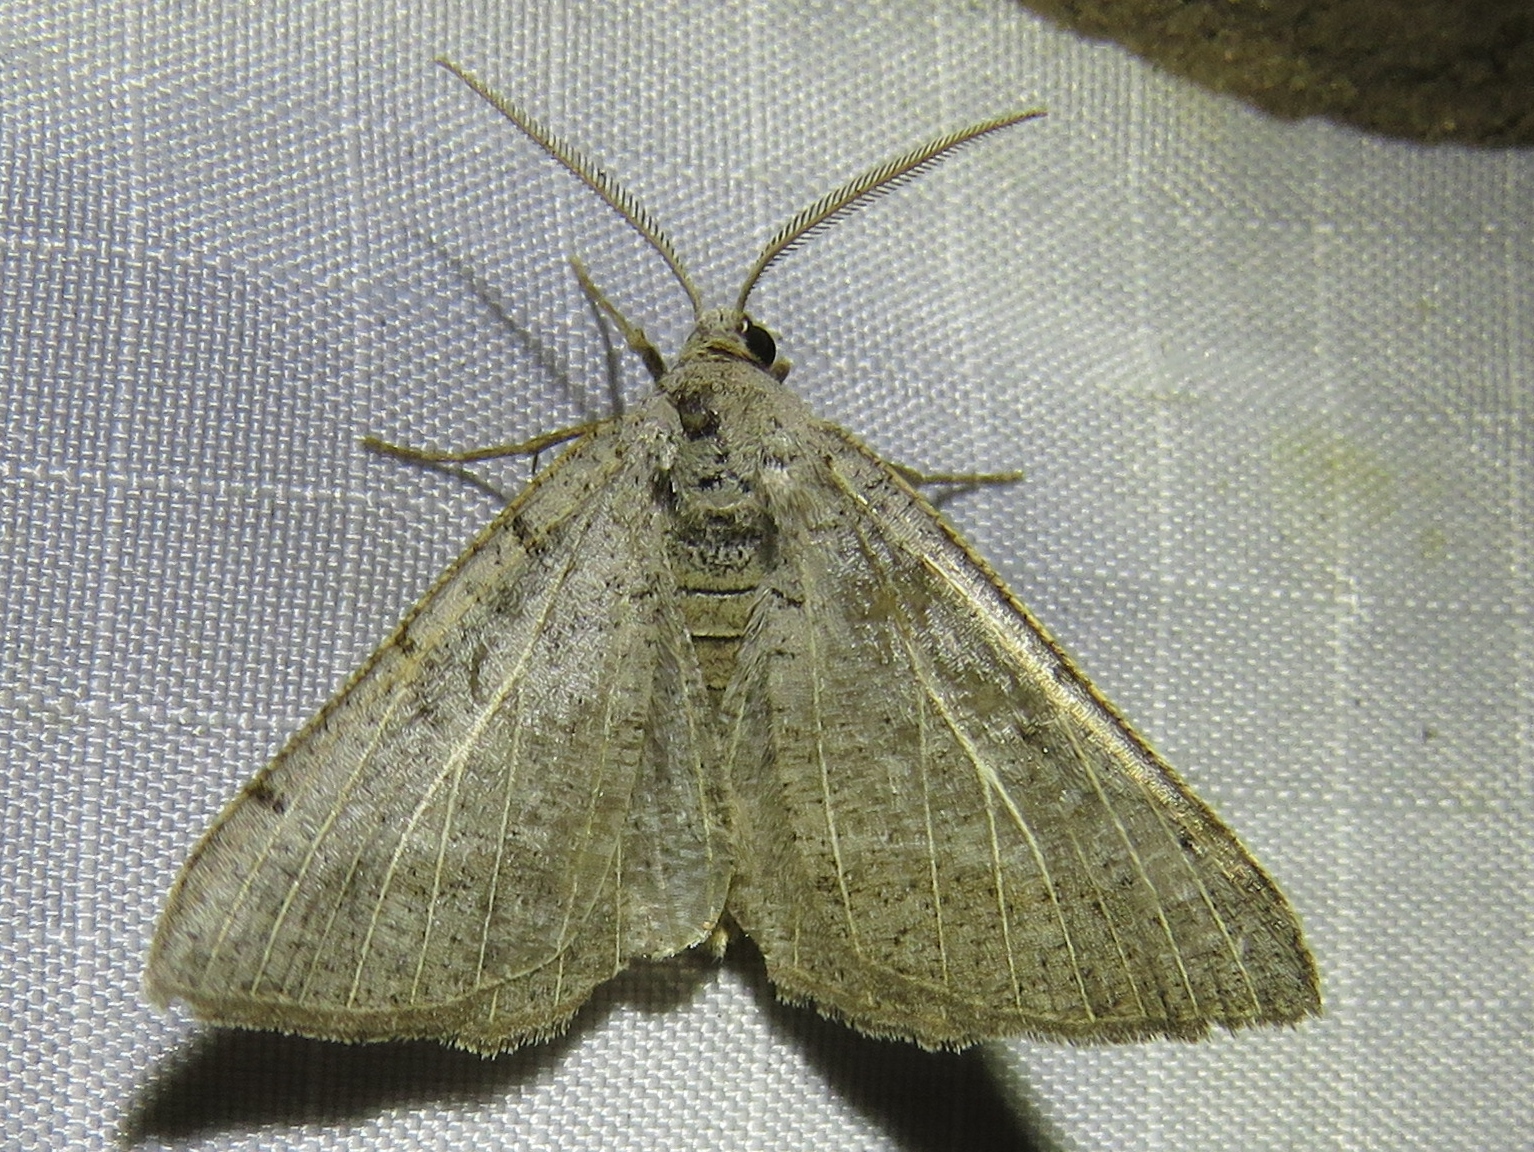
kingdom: Animalia
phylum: Arthropoda
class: Insecta
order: Lepidoptera
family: Geometridae
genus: Isturgia
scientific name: Isturgia dislocaria
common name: Pale-viened enconista
